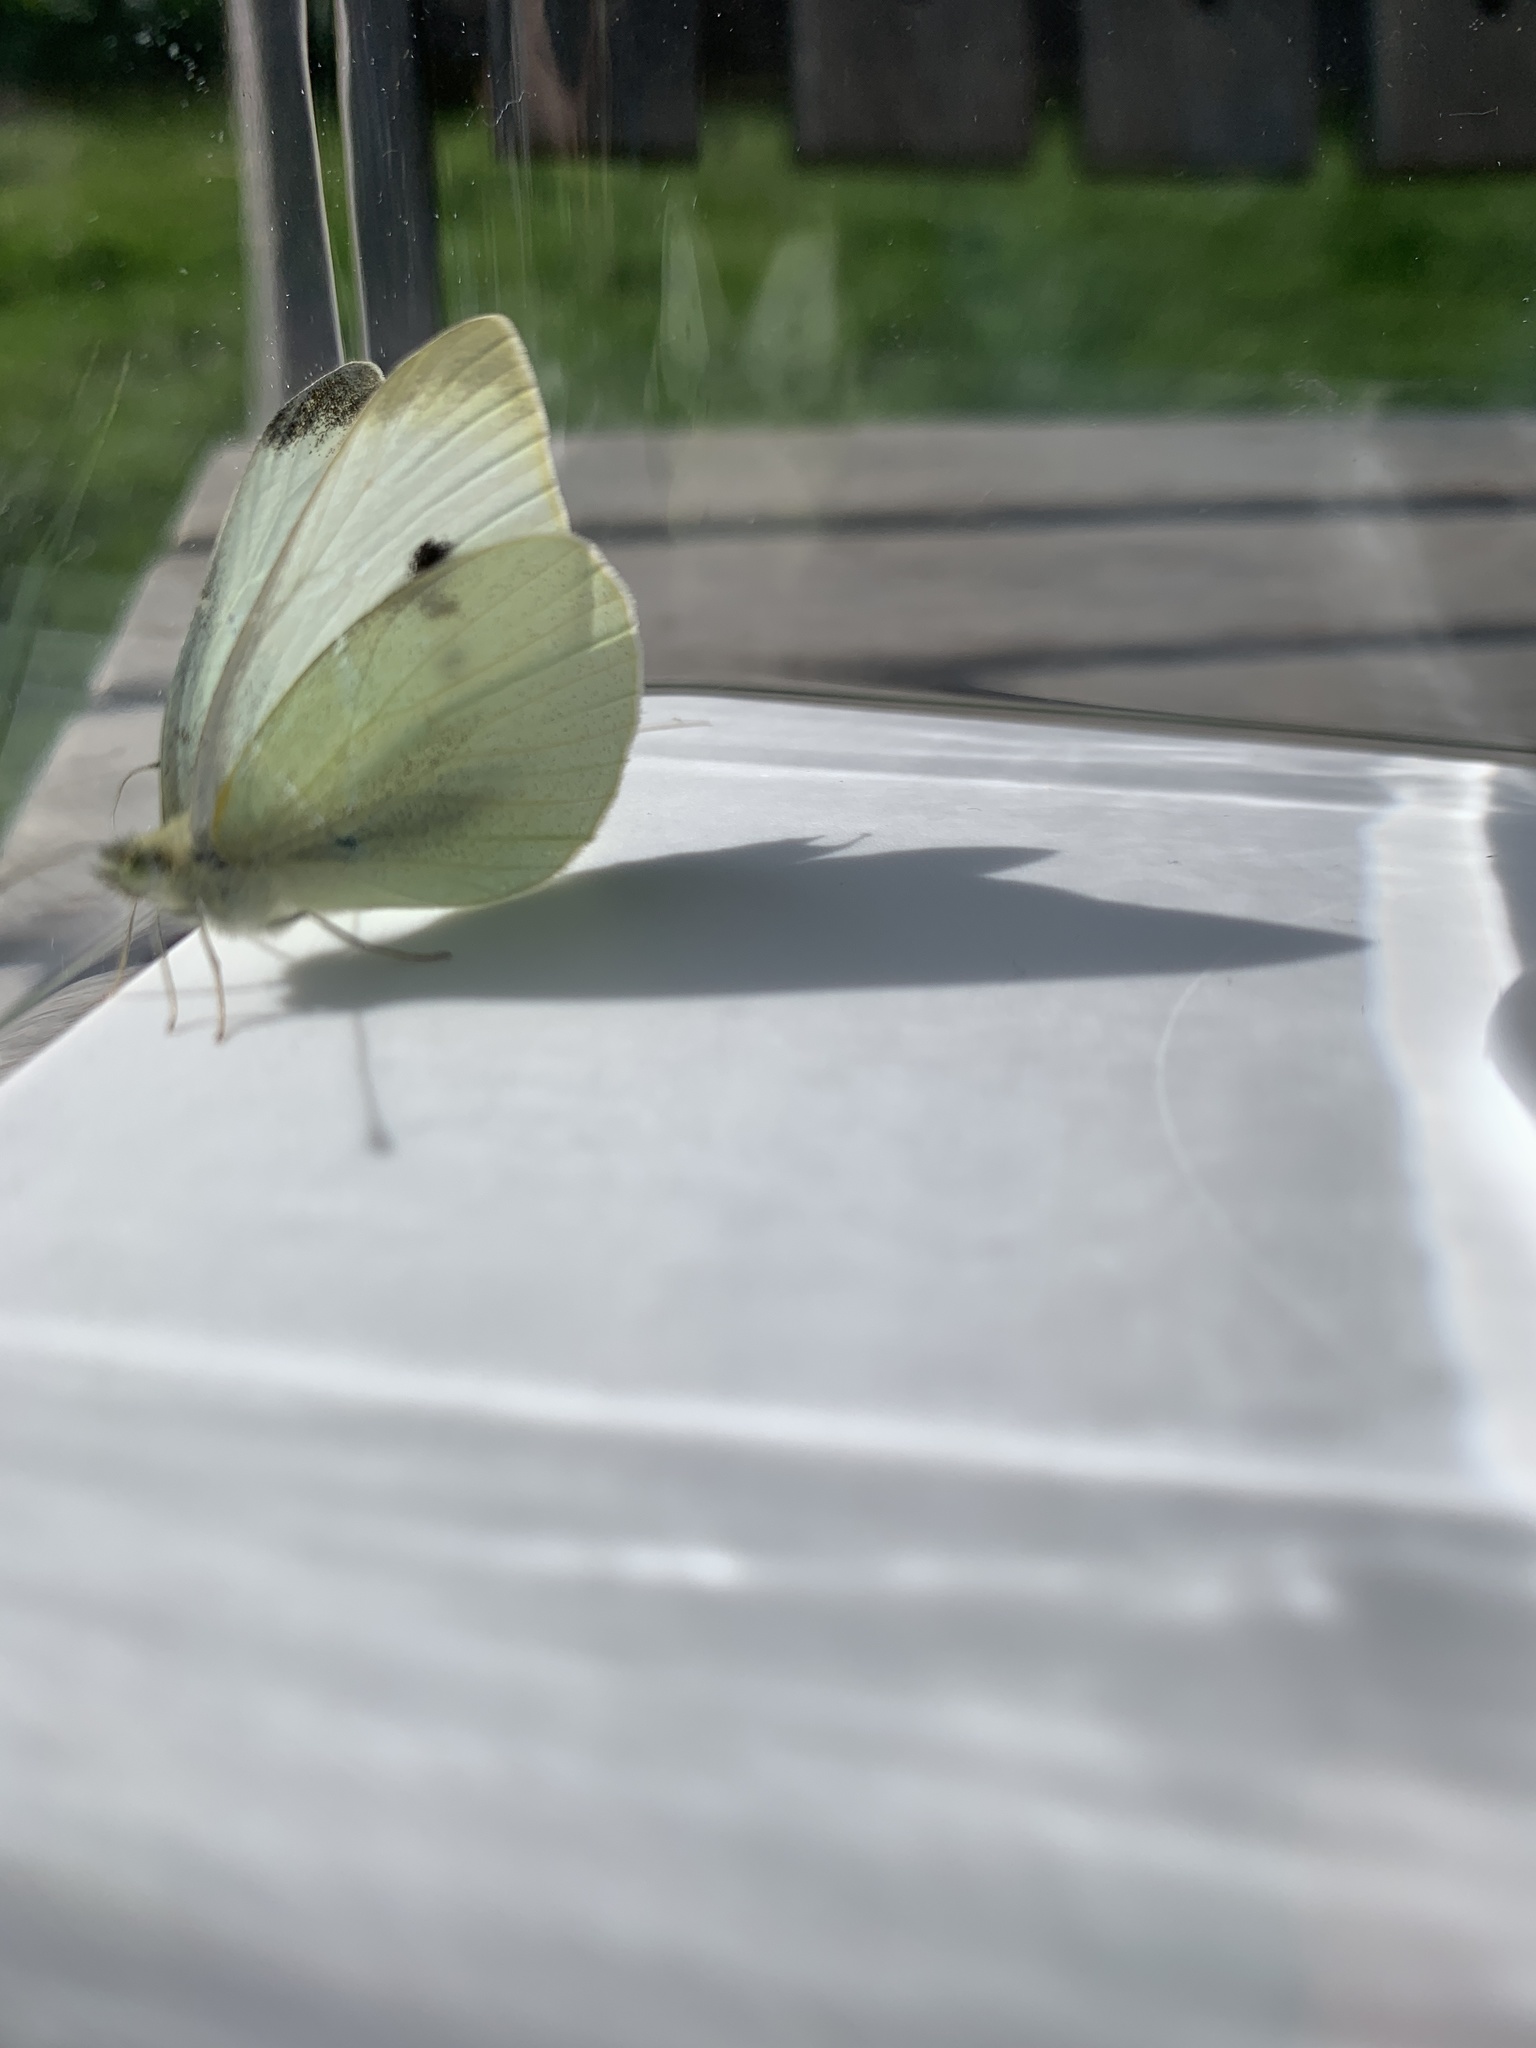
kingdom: Animalia
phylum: Arthropoda
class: Insecta
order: Lepidoptera
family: Pieridae
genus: Pieris
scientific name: Pieris rapae
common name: Small white
